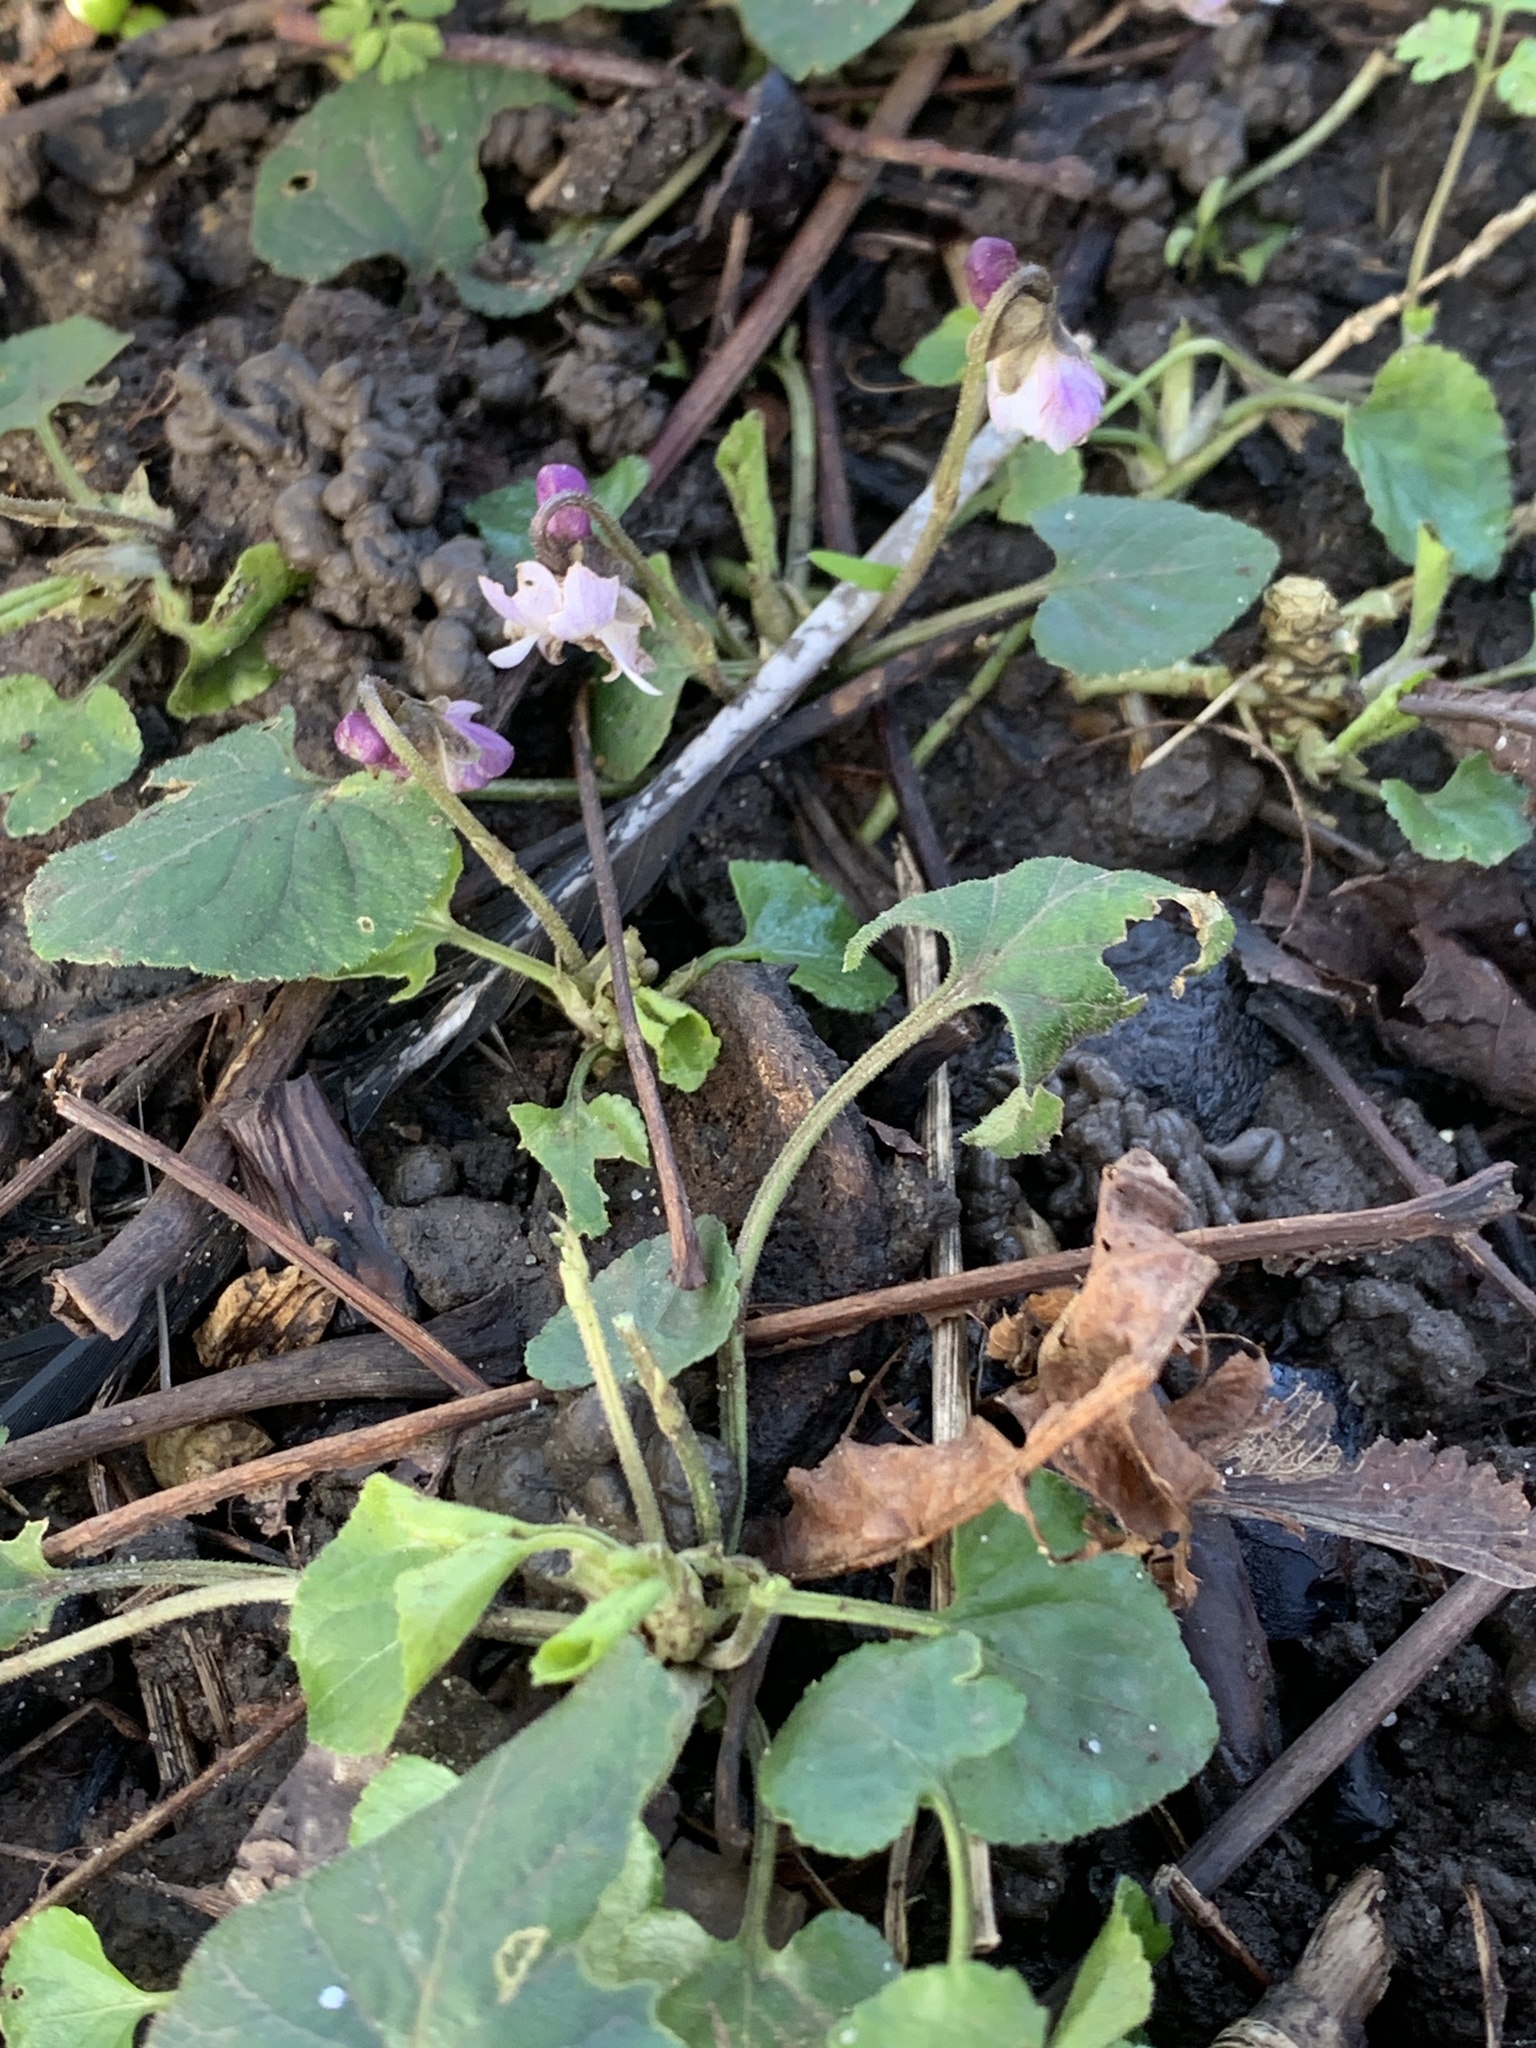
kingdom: Plantae
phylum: Tracheophyta
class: Magnoliopsida
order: Malpighiales
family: Violaceae
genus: Viola
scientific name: Viola odorata
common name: Sweet violet
